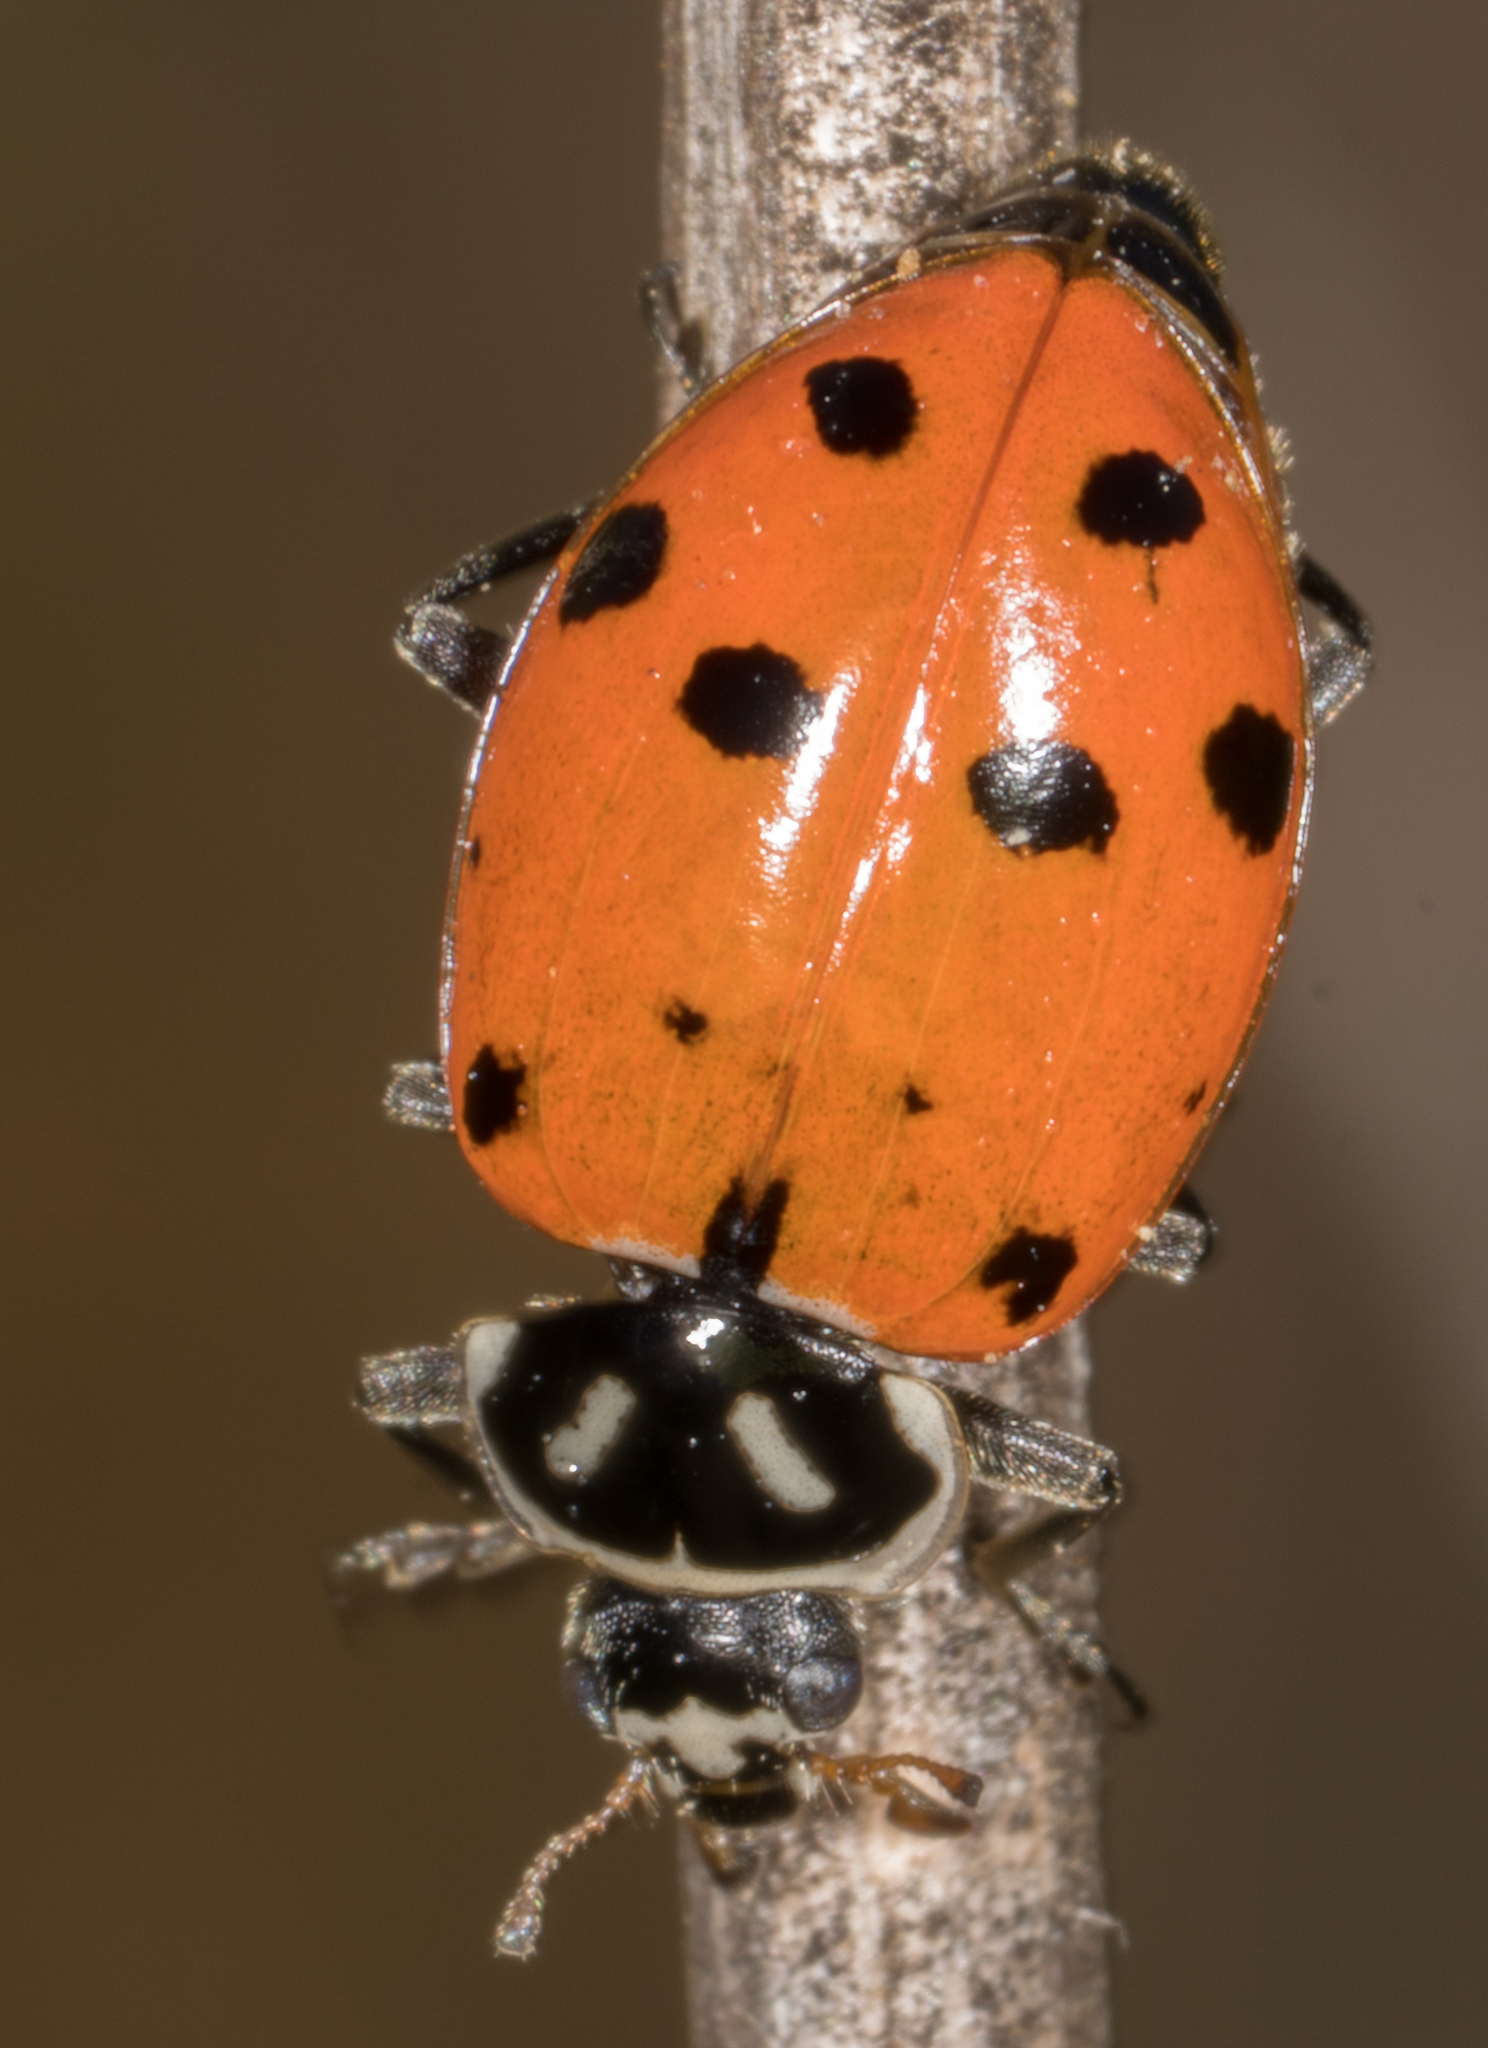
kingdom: Animalia
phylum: Arthropoda
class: Insecta
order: Coleoptera
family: Coccinellidae
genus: Hippodamia
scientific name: Hippodamia convergens
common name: Convergent lady beetle
